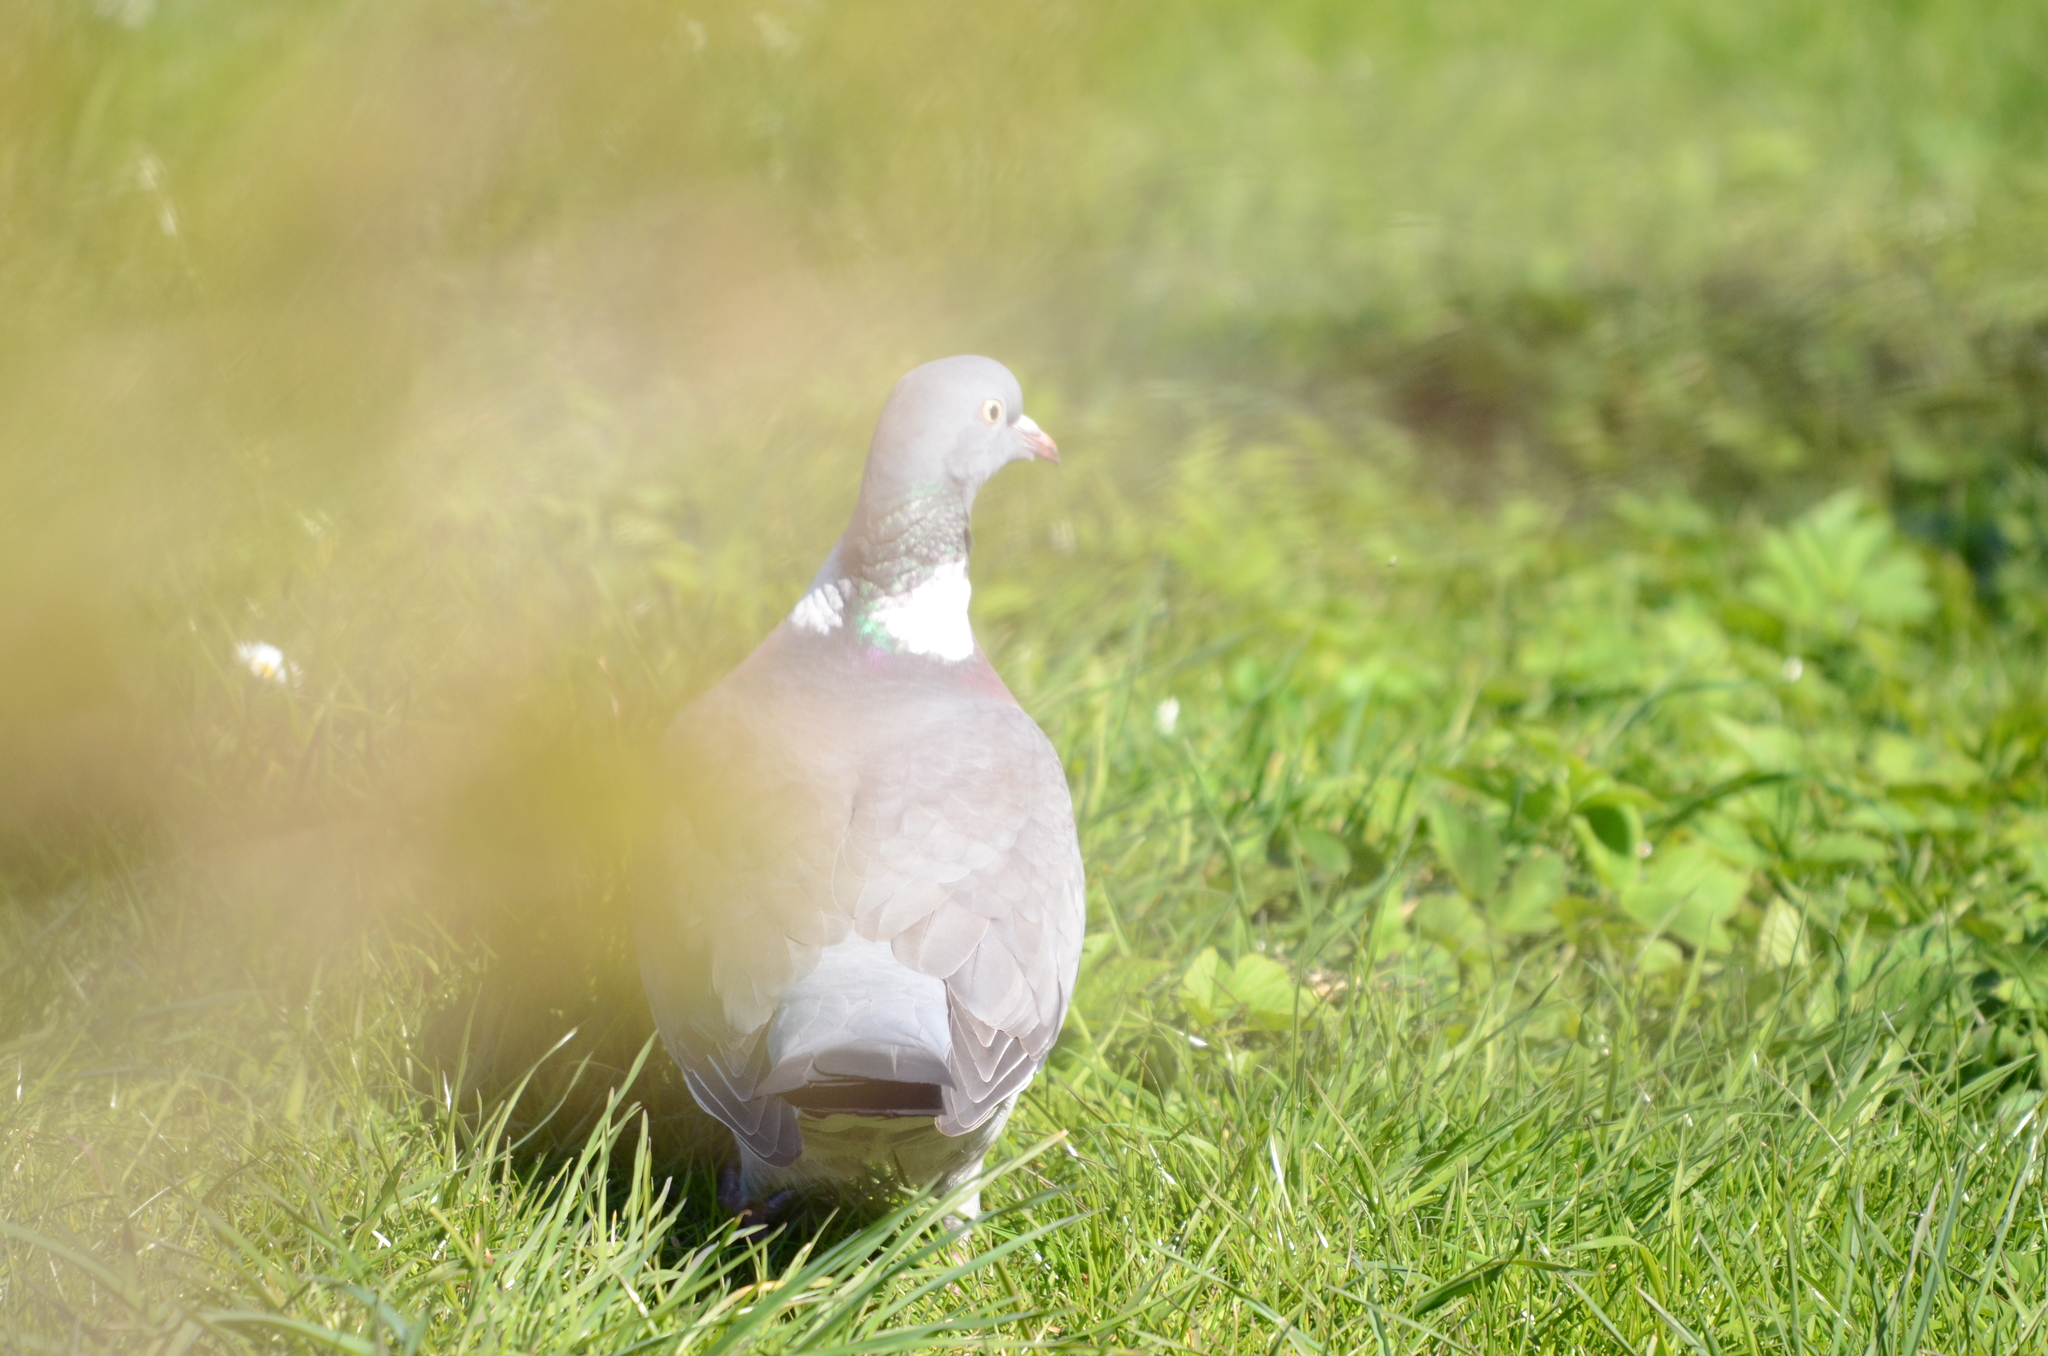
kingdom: Animalia
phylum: Chordata
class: Aves
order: Columbiformes
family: Columbidae
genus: Columba
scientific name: Columba palumbus
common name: Common wood pigeon
